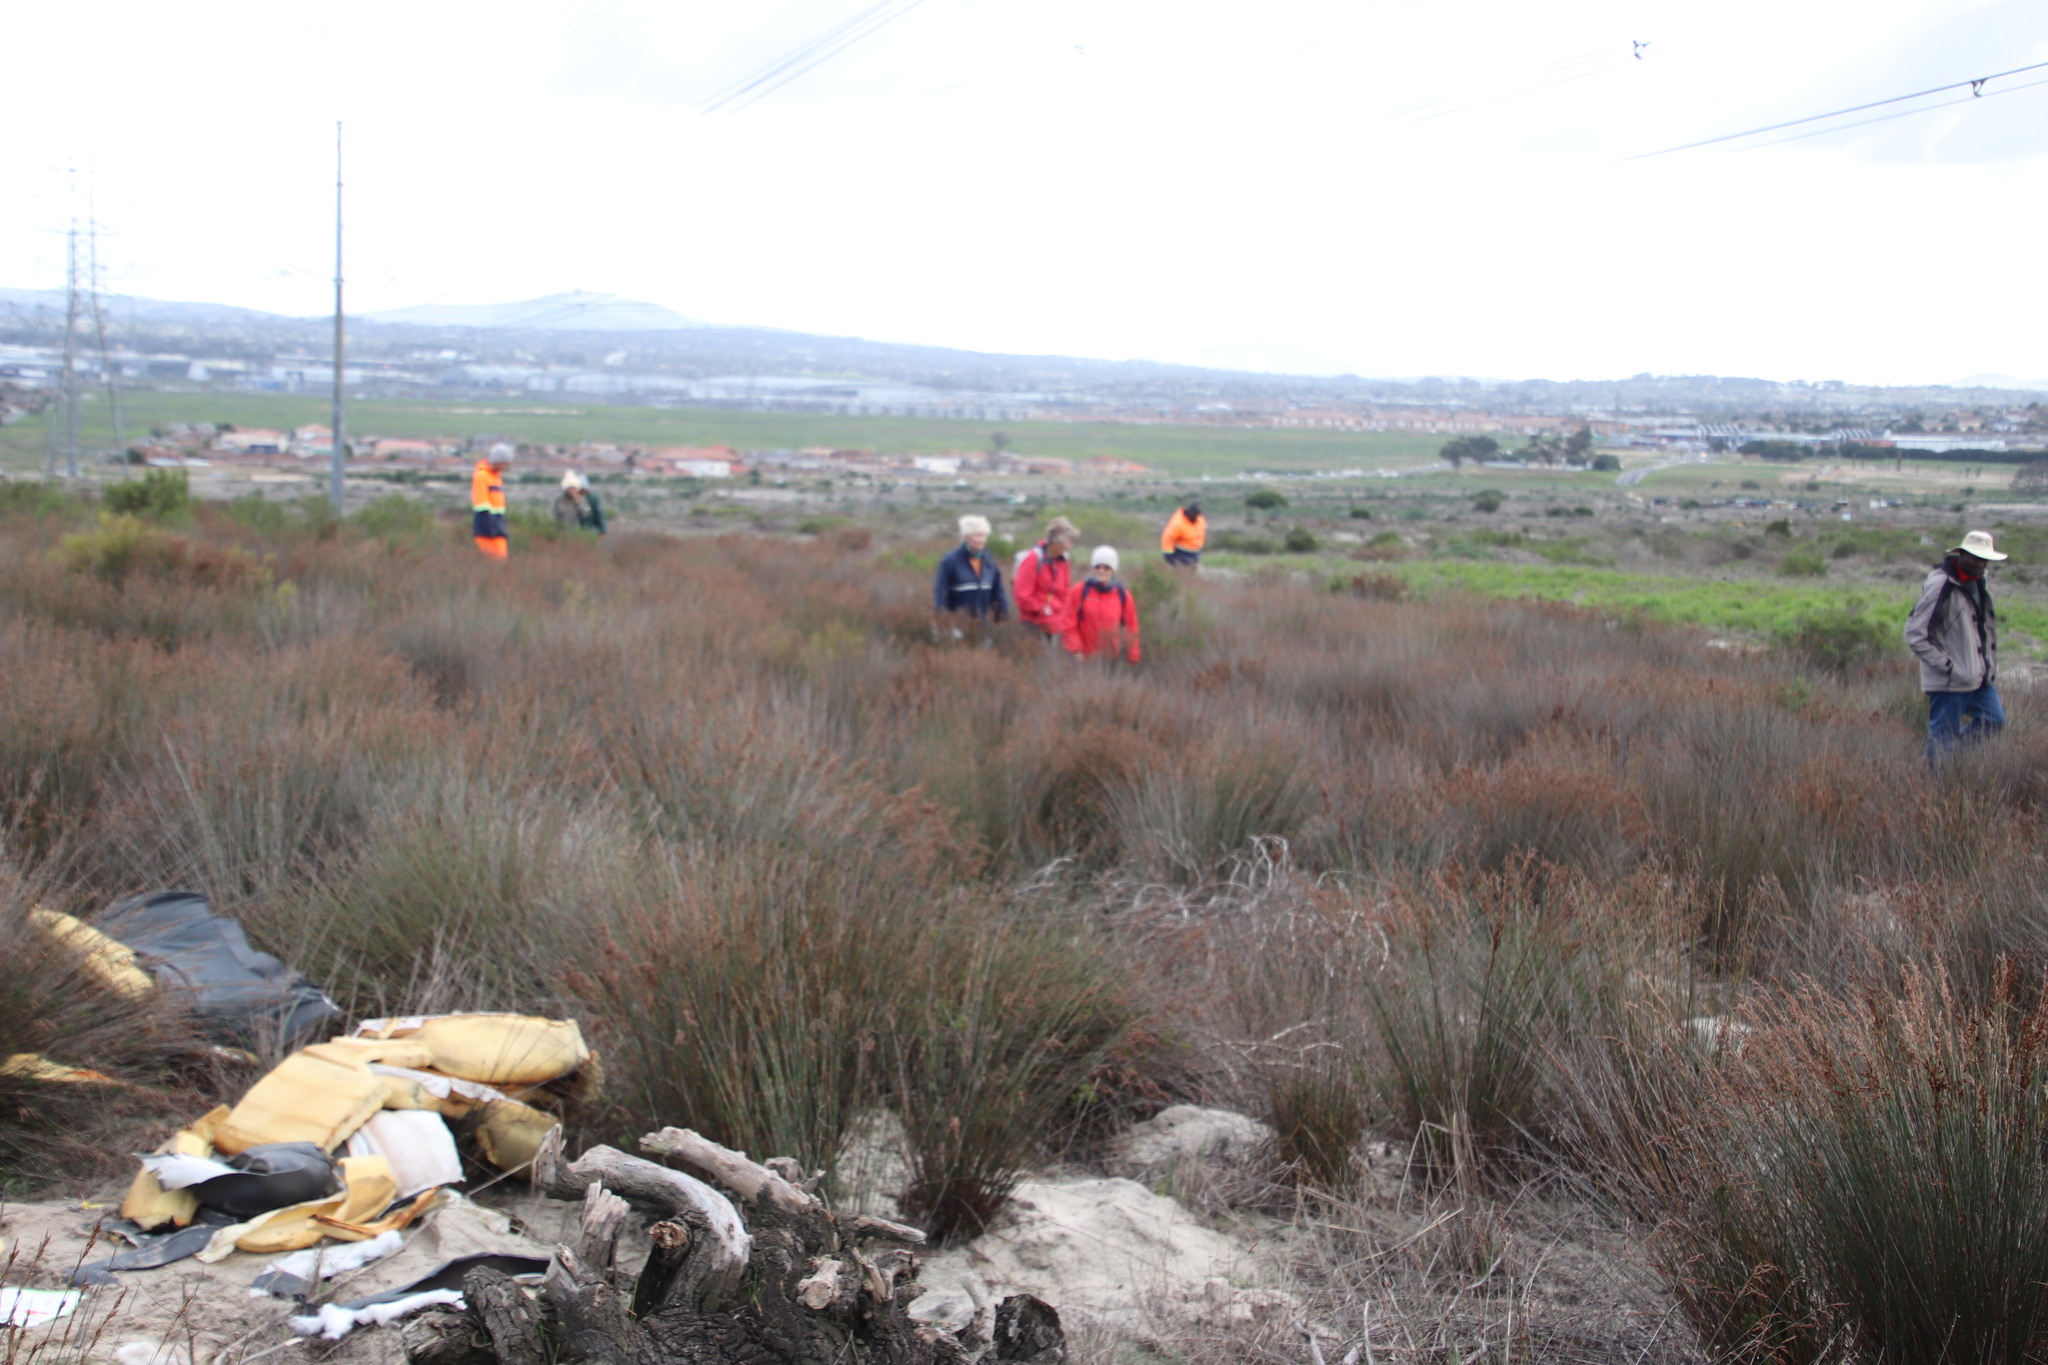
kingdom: Plantae
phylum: Tracheophyta
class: Liliopsida
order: Poales
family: Restionaceae
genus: Thamnochortus
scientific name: Thamnochortus punctatus
